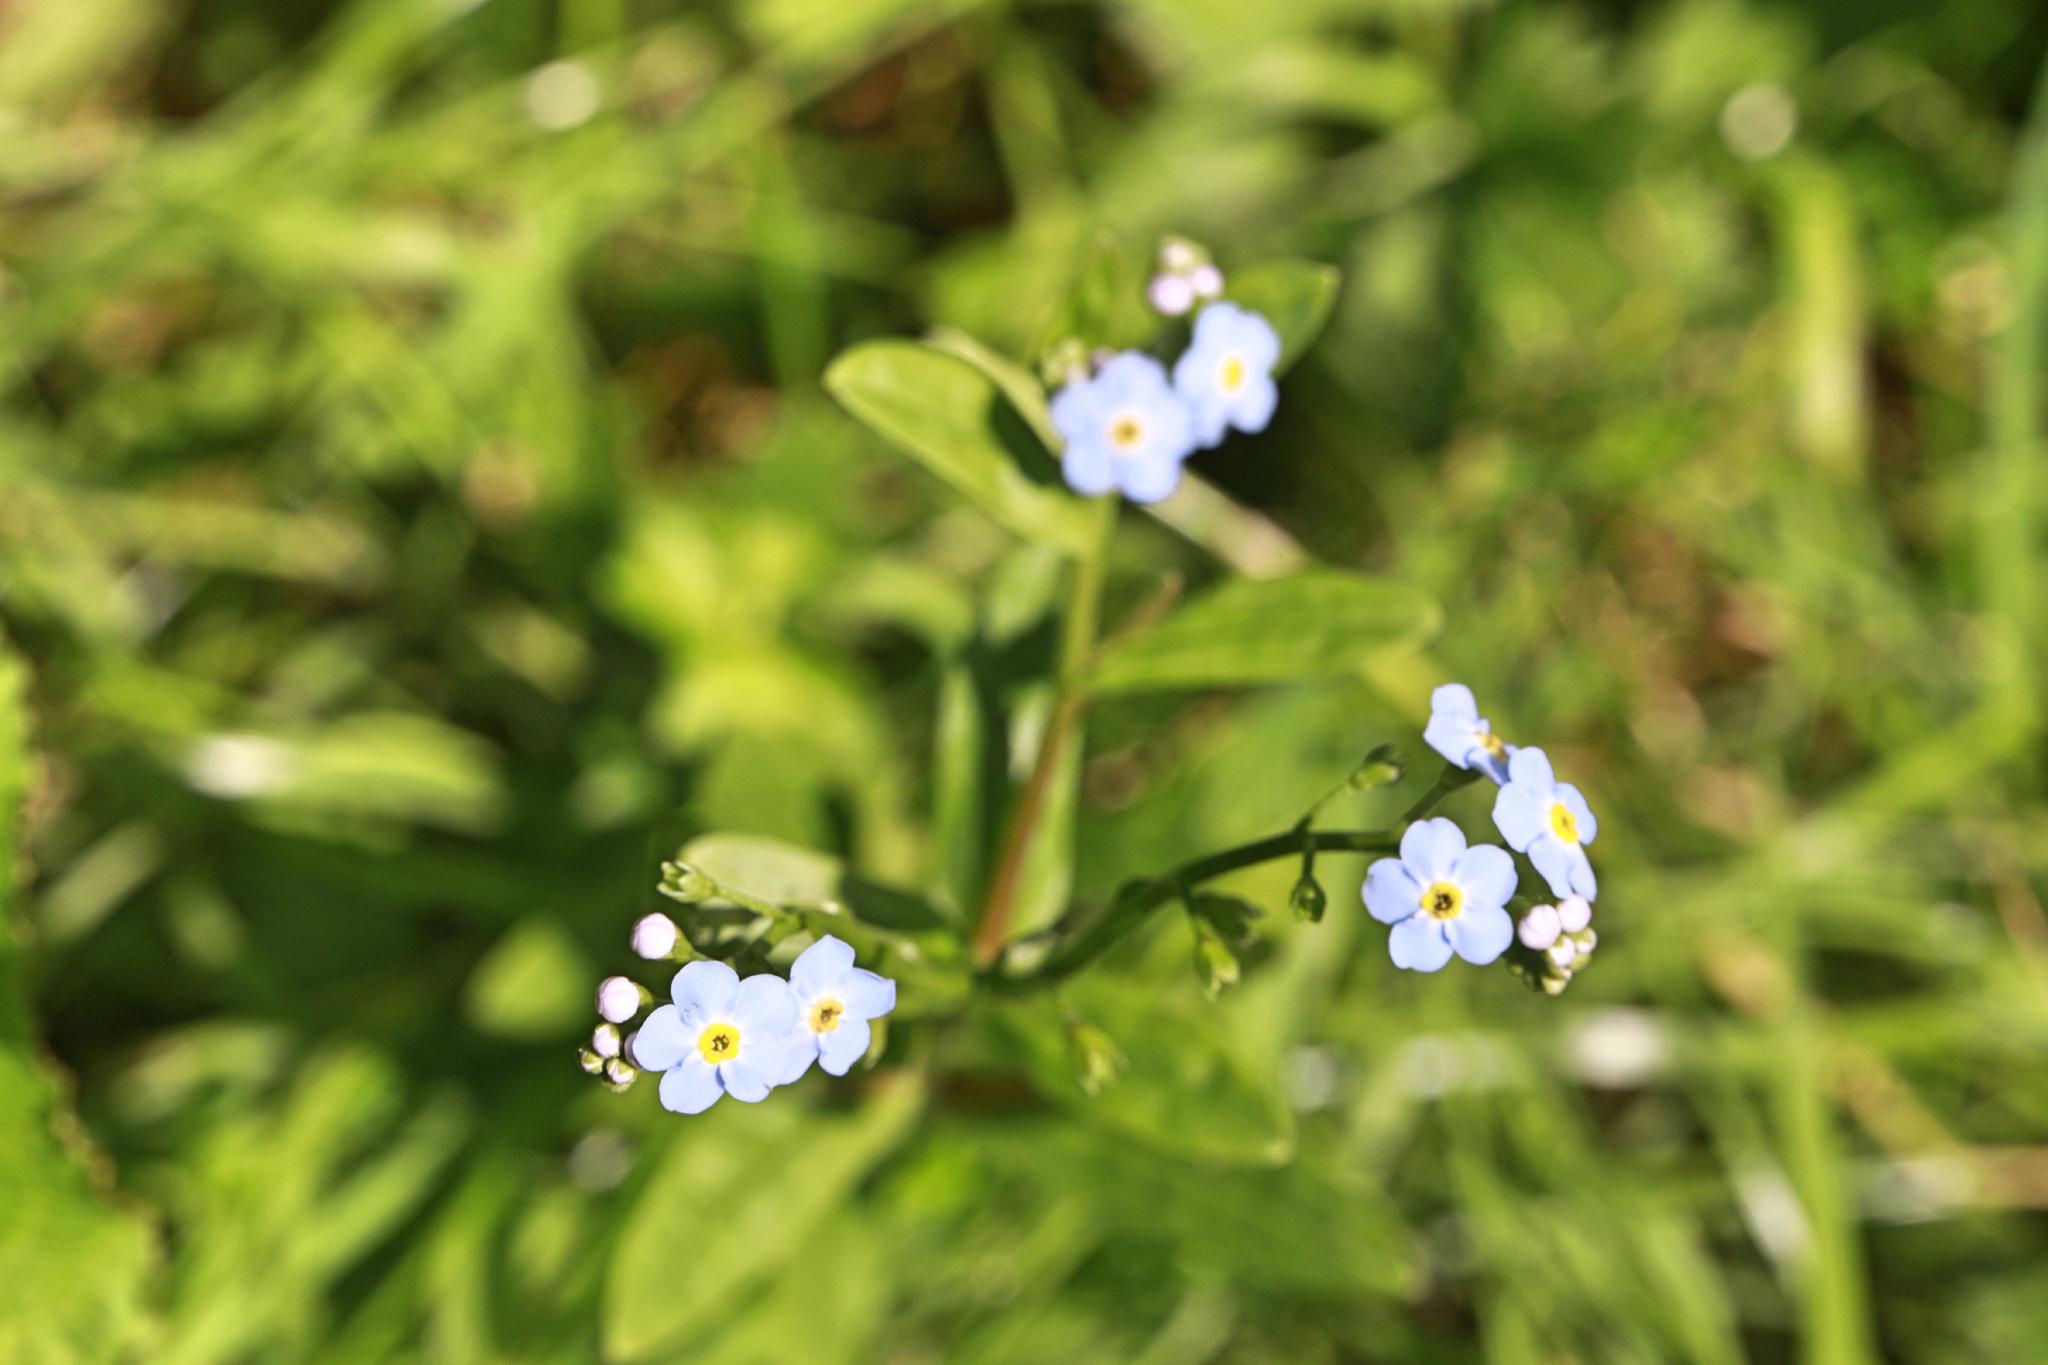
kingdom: Plantae
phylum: Tracheophyta
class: Magnoliopsida
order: Boraginales
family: Boraginaceae
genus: Myosotis
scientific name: Myosotis scorpioides
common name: Water forget-me-not
